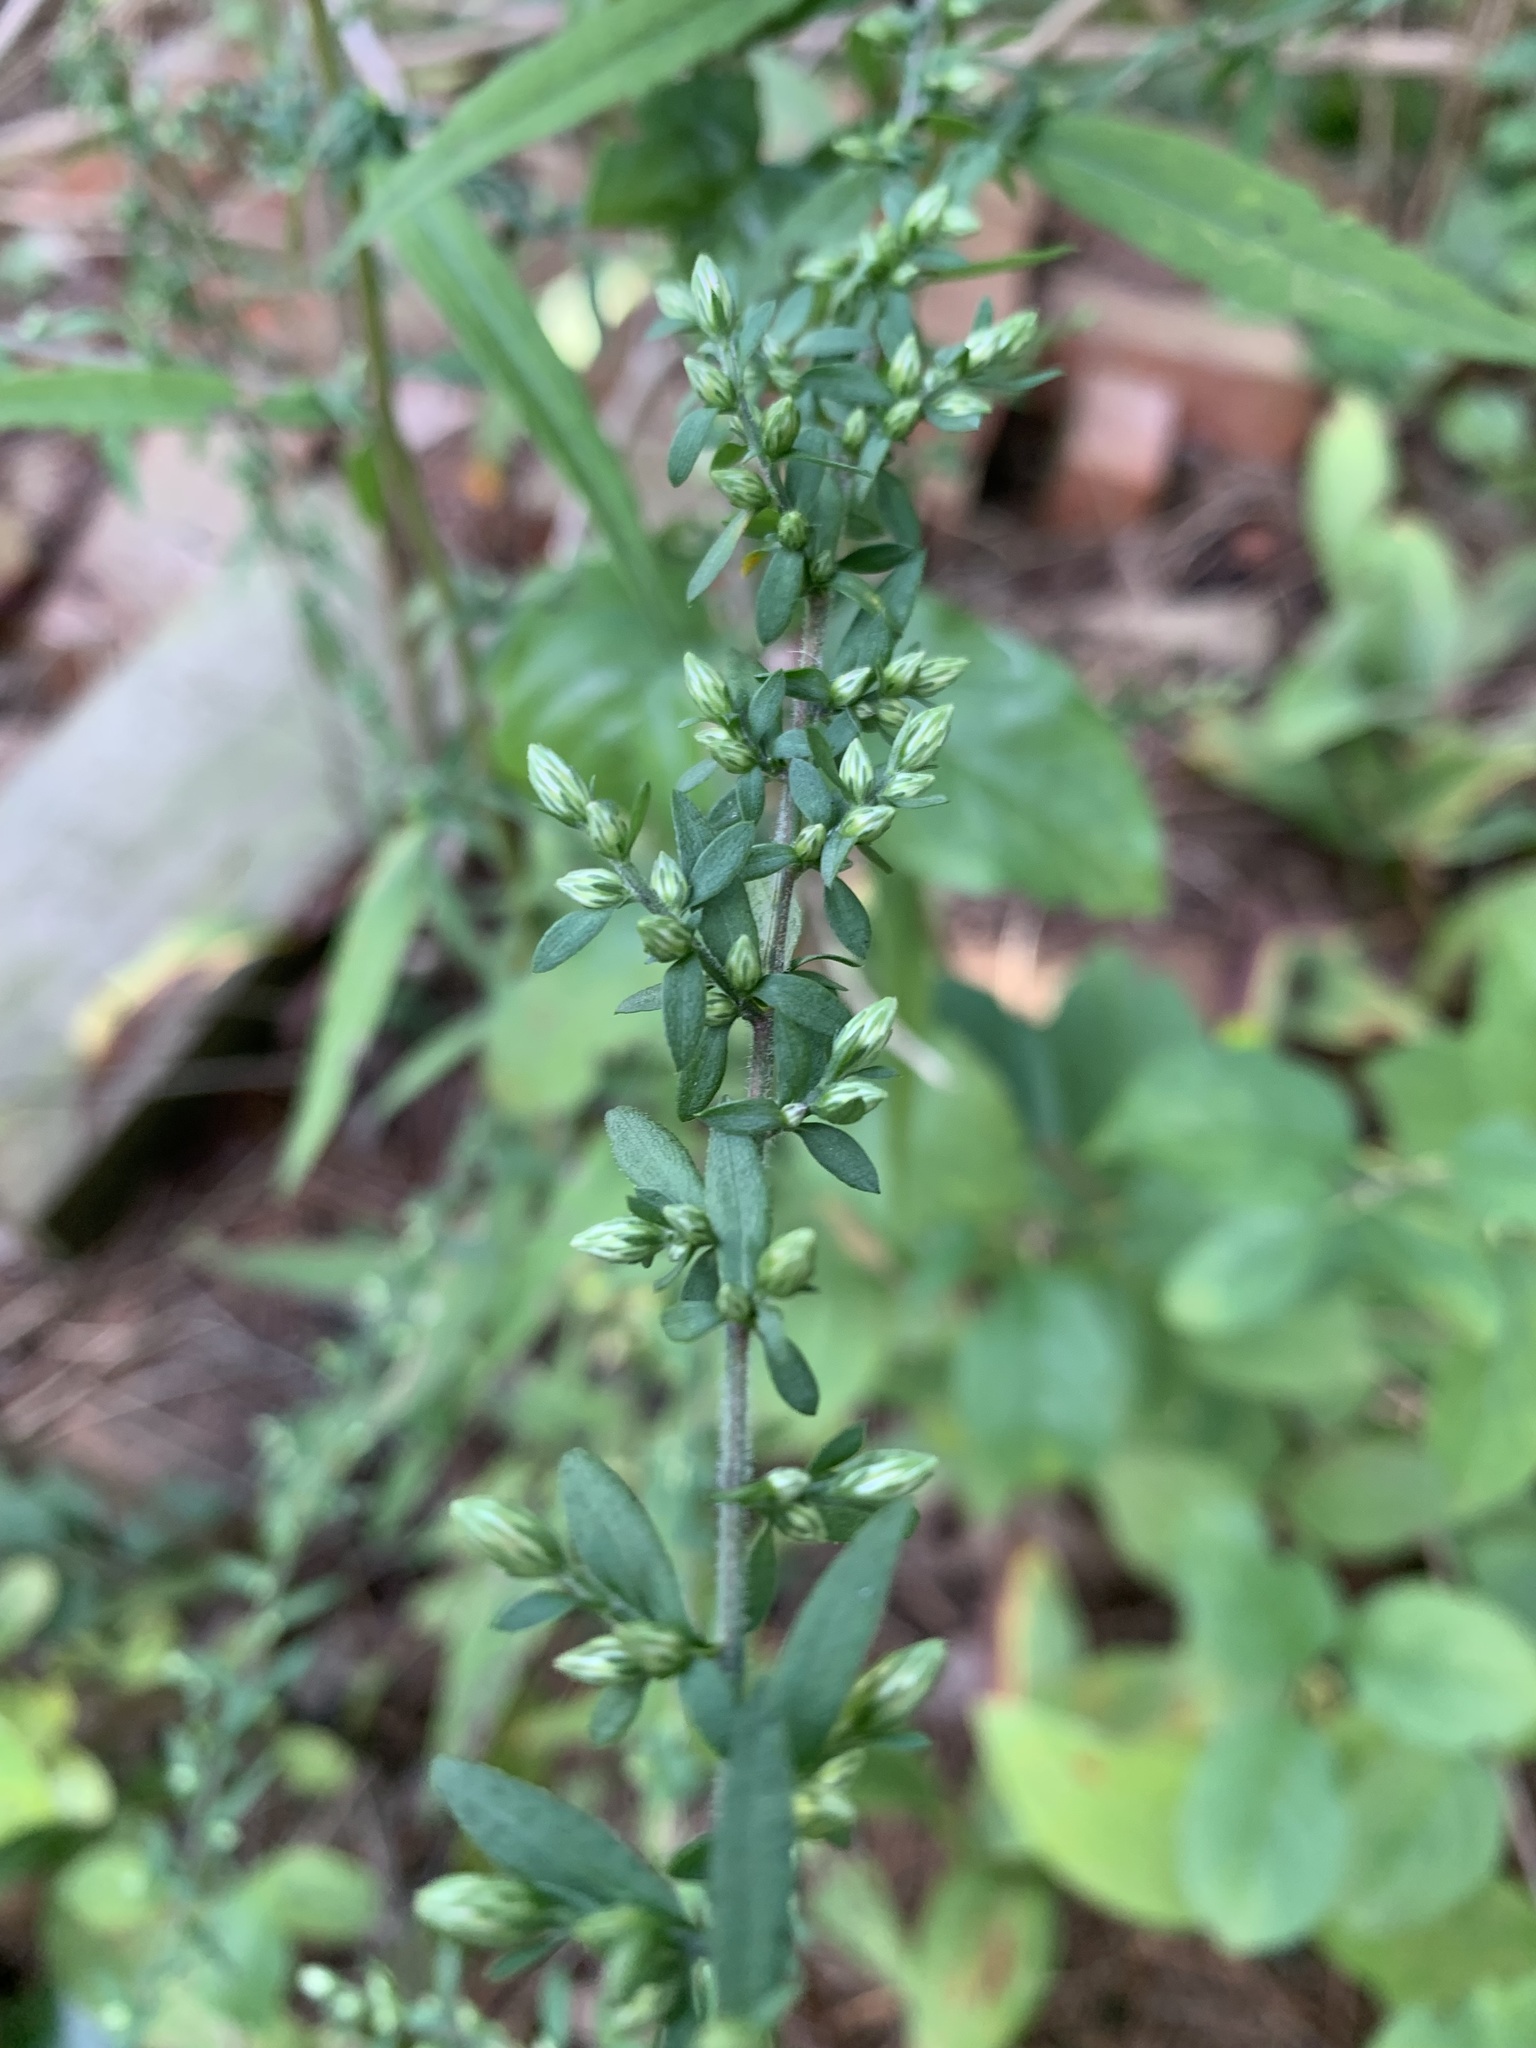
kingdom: Plantae
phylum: Tracheophyta
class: Magnoliopsida
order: Asterales
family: Asteraceae
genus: Solidago
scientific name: Solidago bicolor
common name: Silverrod
